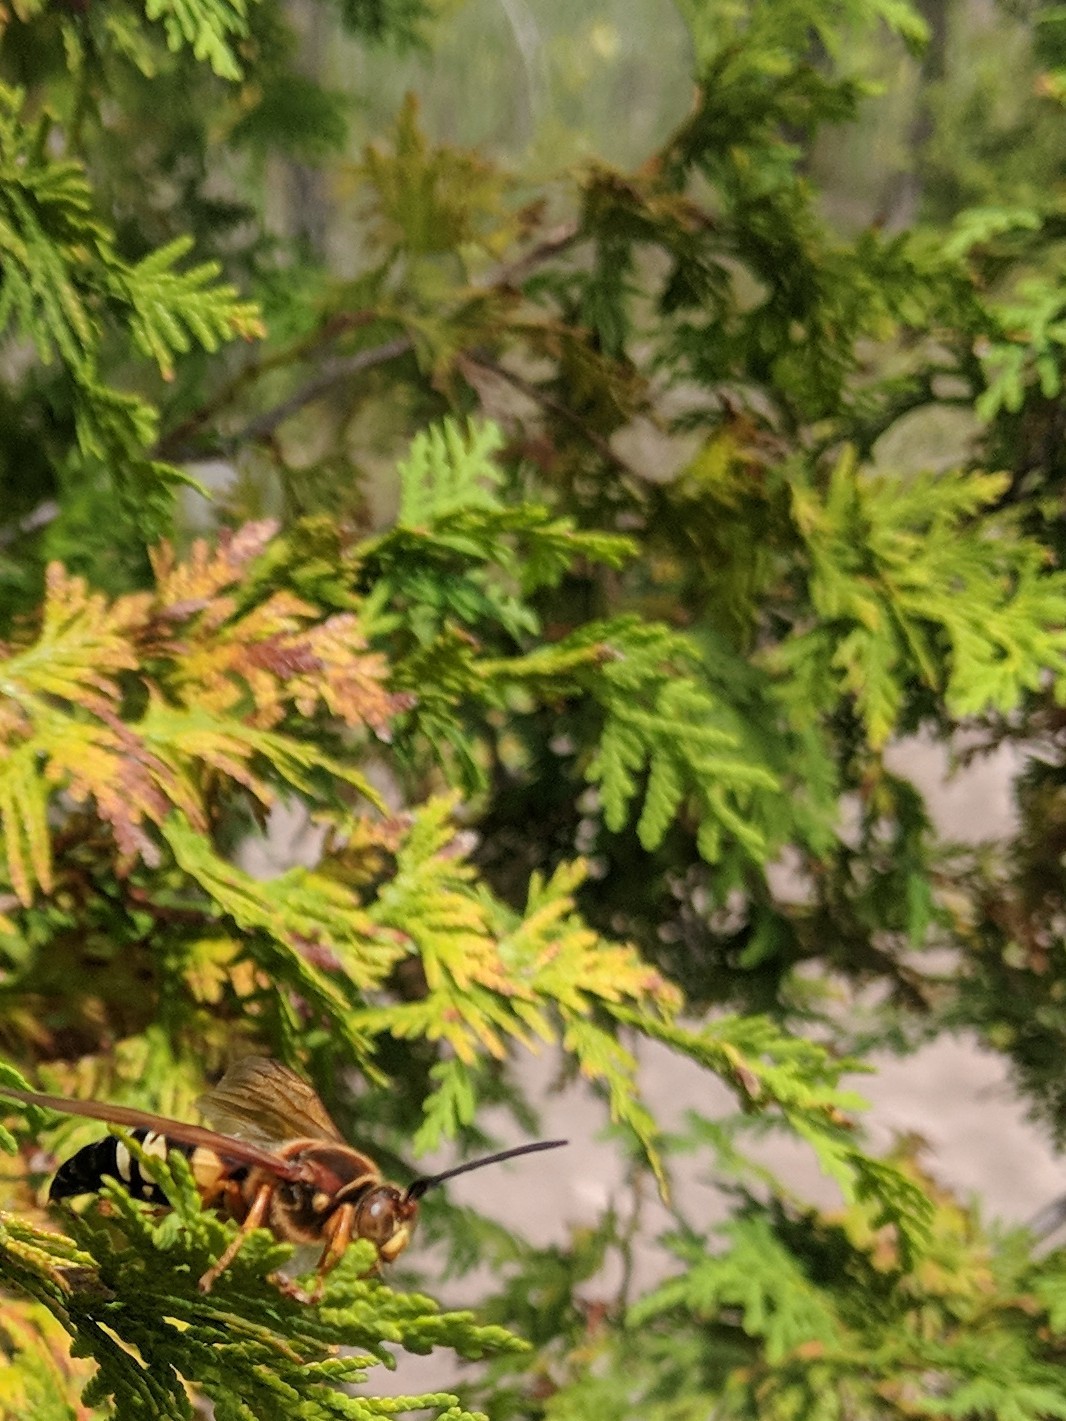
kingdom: Animalia
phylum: Arthropoda
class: Insecta
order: Hymenoptera
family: Crabronidae
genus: Sphecius
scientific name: Sphecius speciosus
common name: Cicada killer
